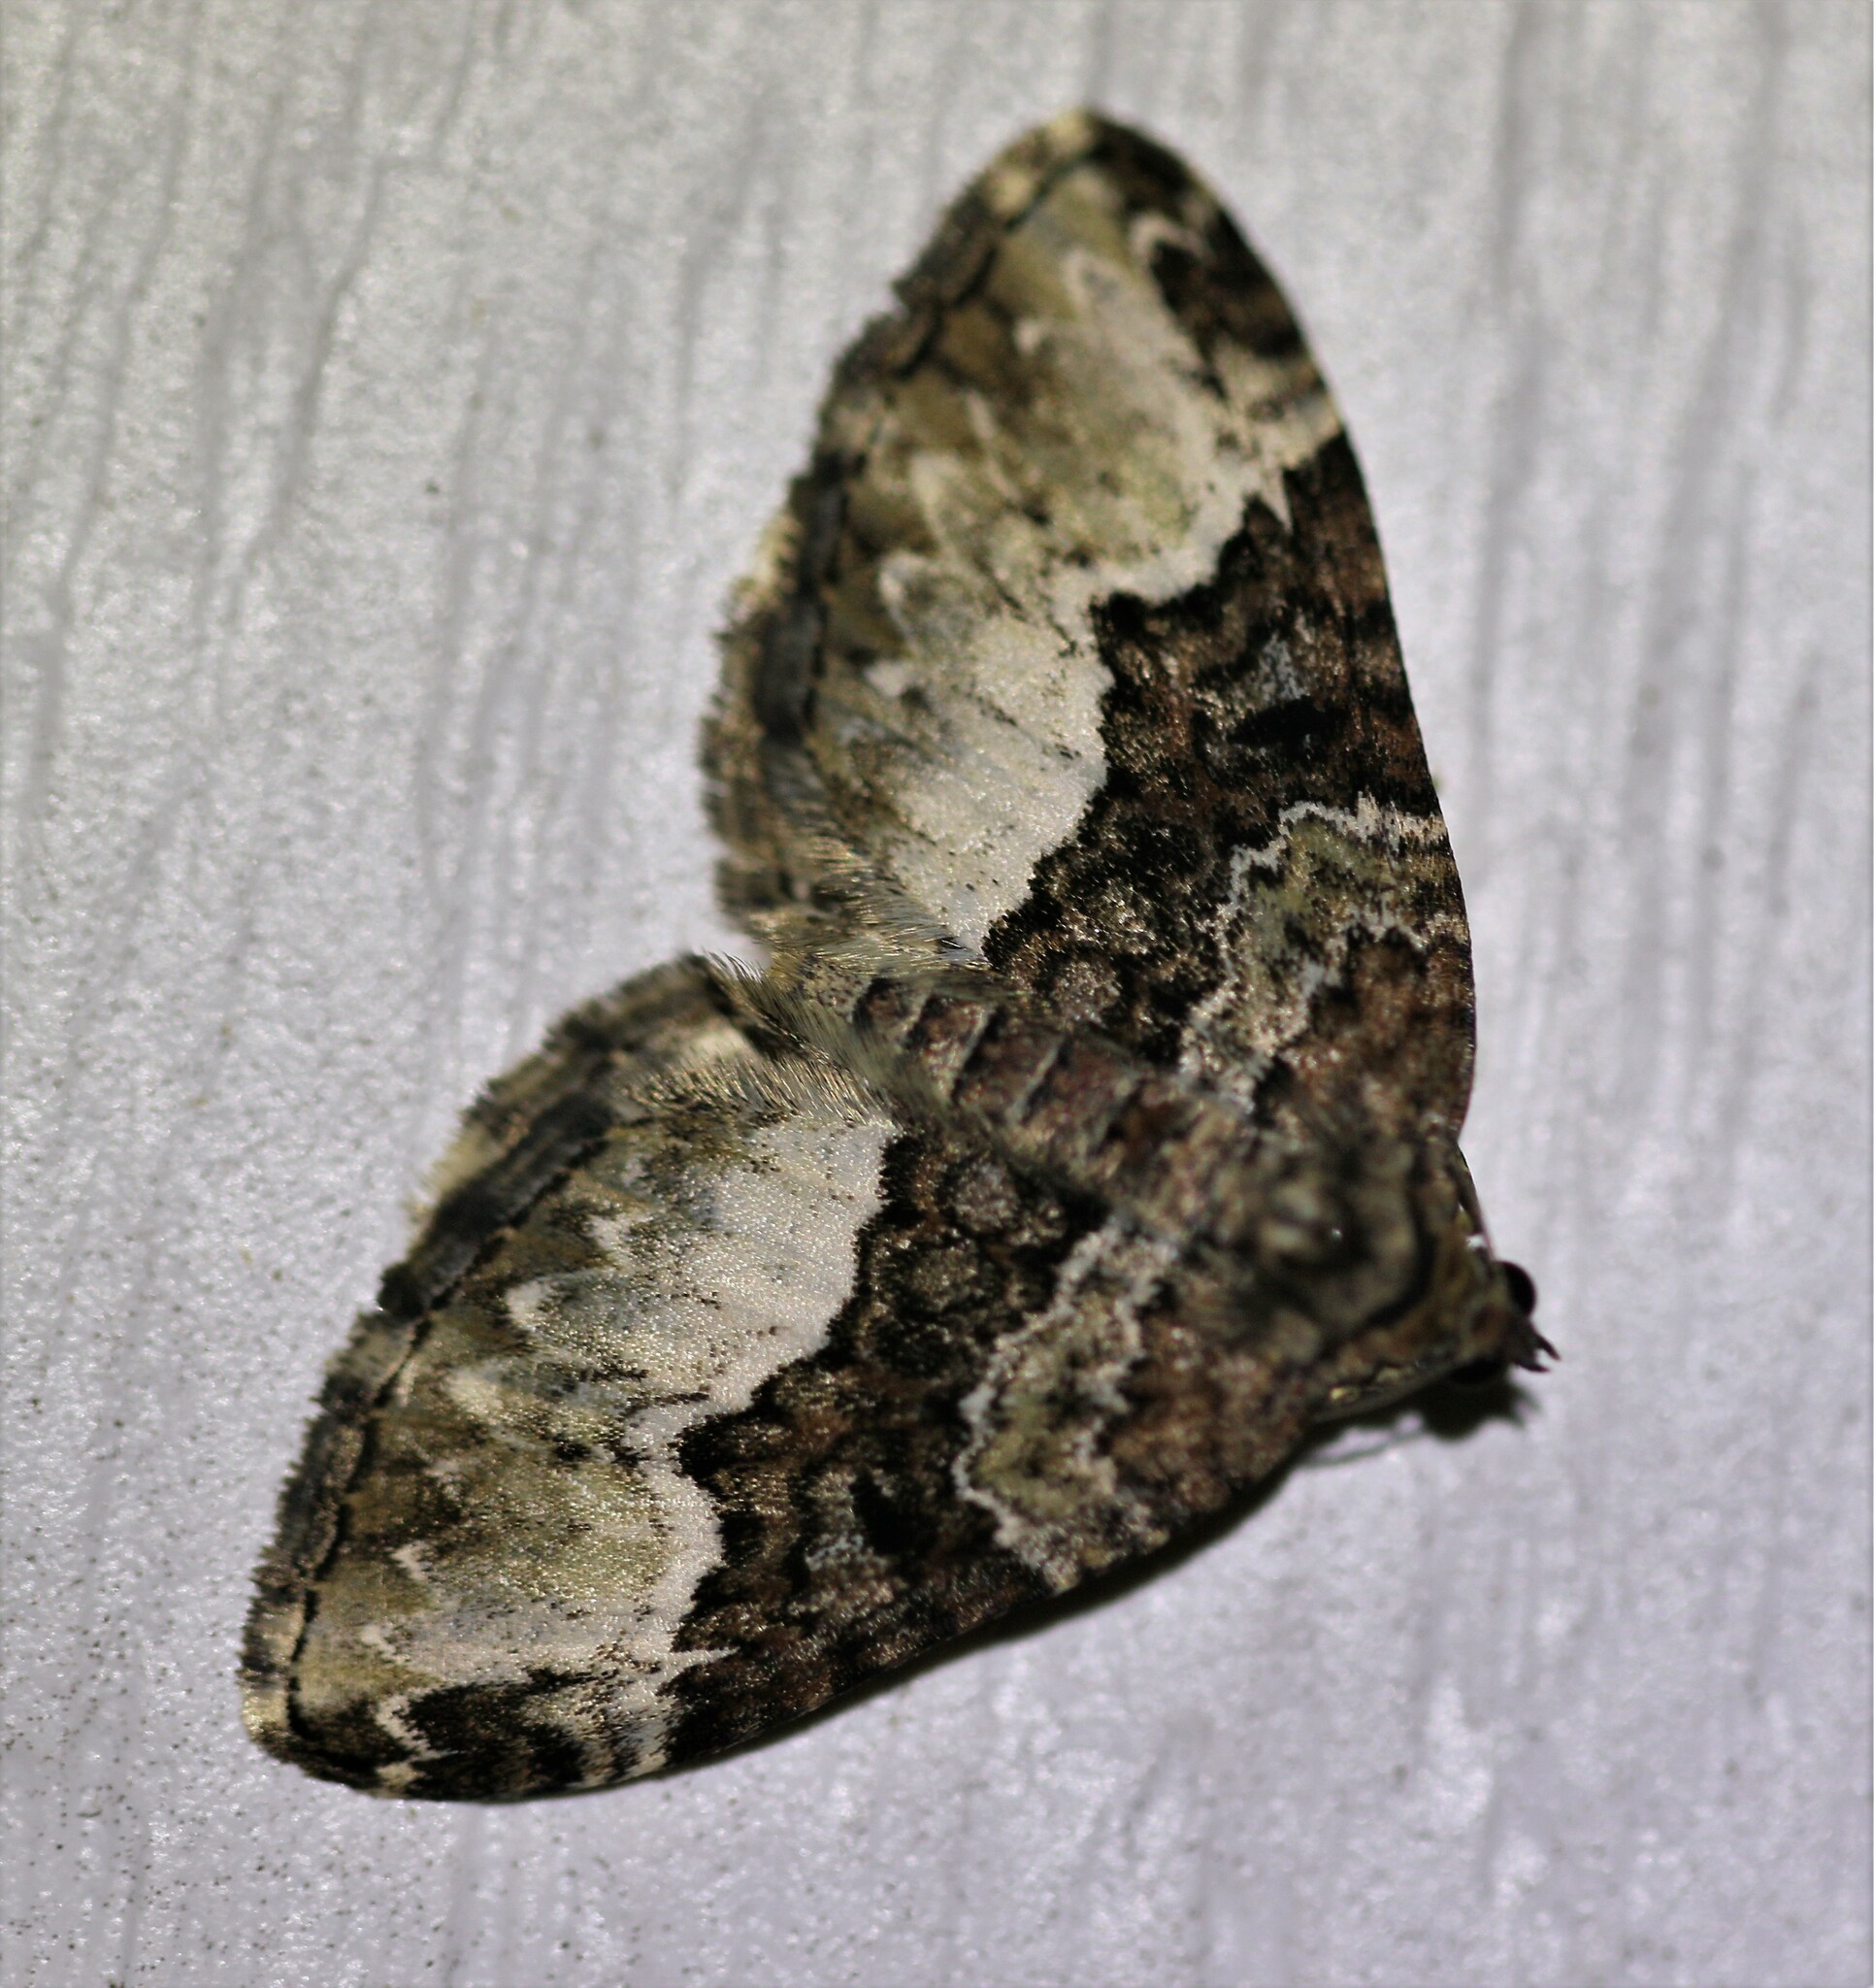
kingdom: Animalia
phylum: Arthropoda
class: Insecta
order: Lepidoptera
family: Geometridae
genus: Euphyia
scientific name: Euphyia intermediata
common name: Sharp-angled carpet
